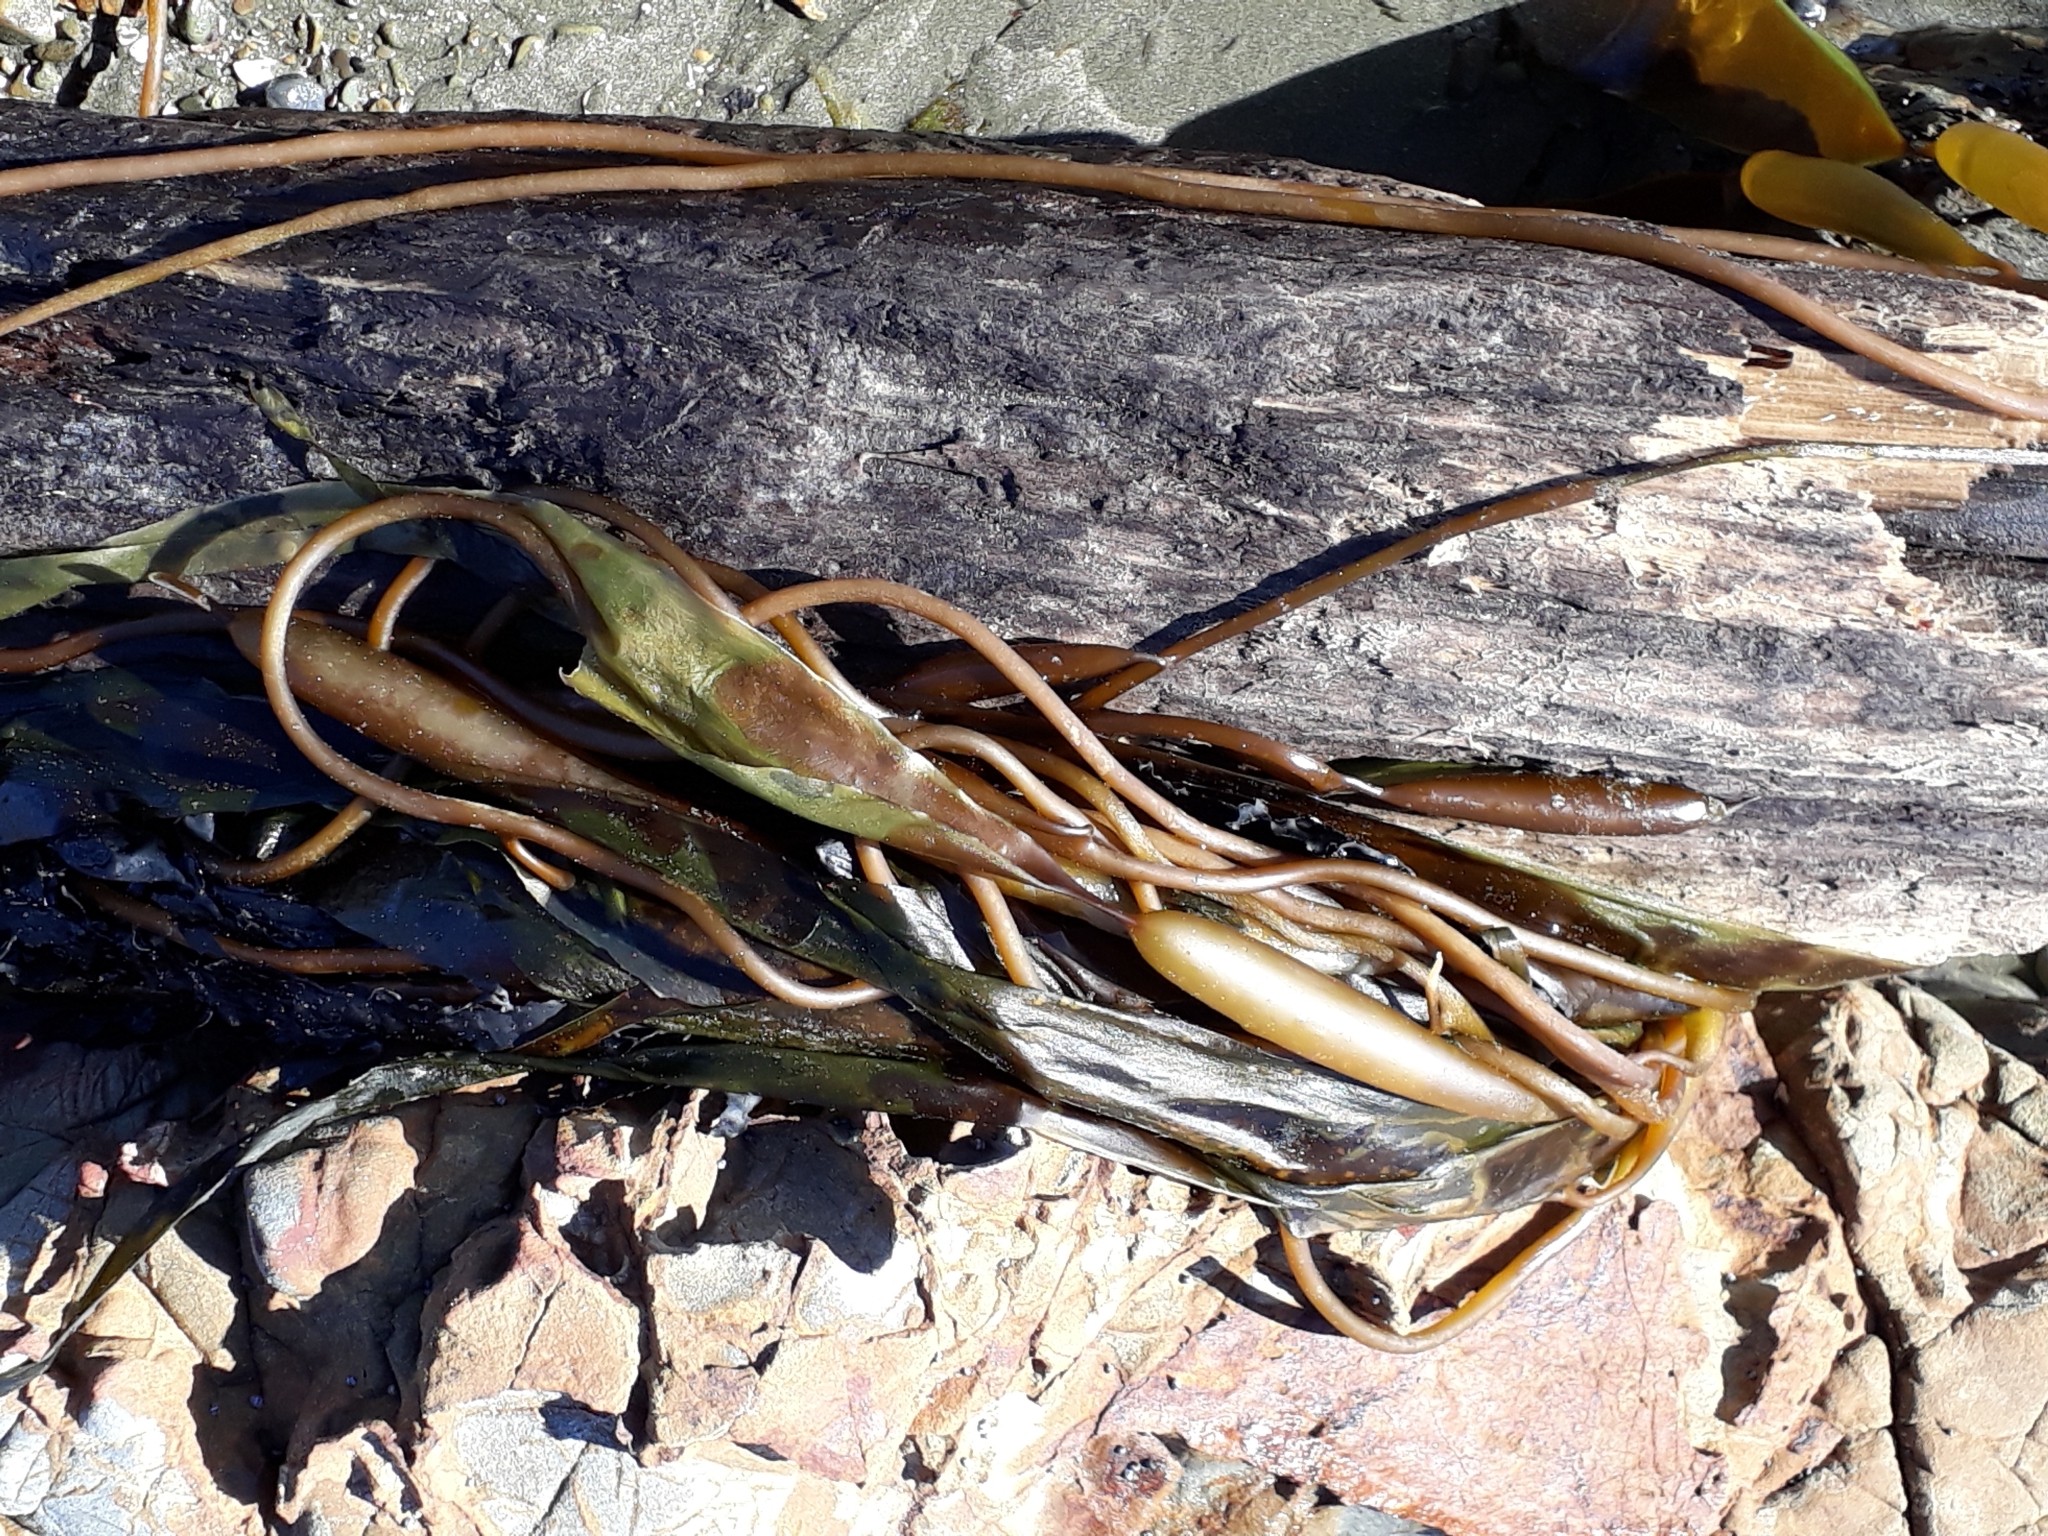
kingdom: Chromista
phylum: Ochrophyta
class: Phaeophyceae
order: Laminariales
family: Laminariaceae
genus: Macrocystis
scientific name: Macrocystis pyrifera
